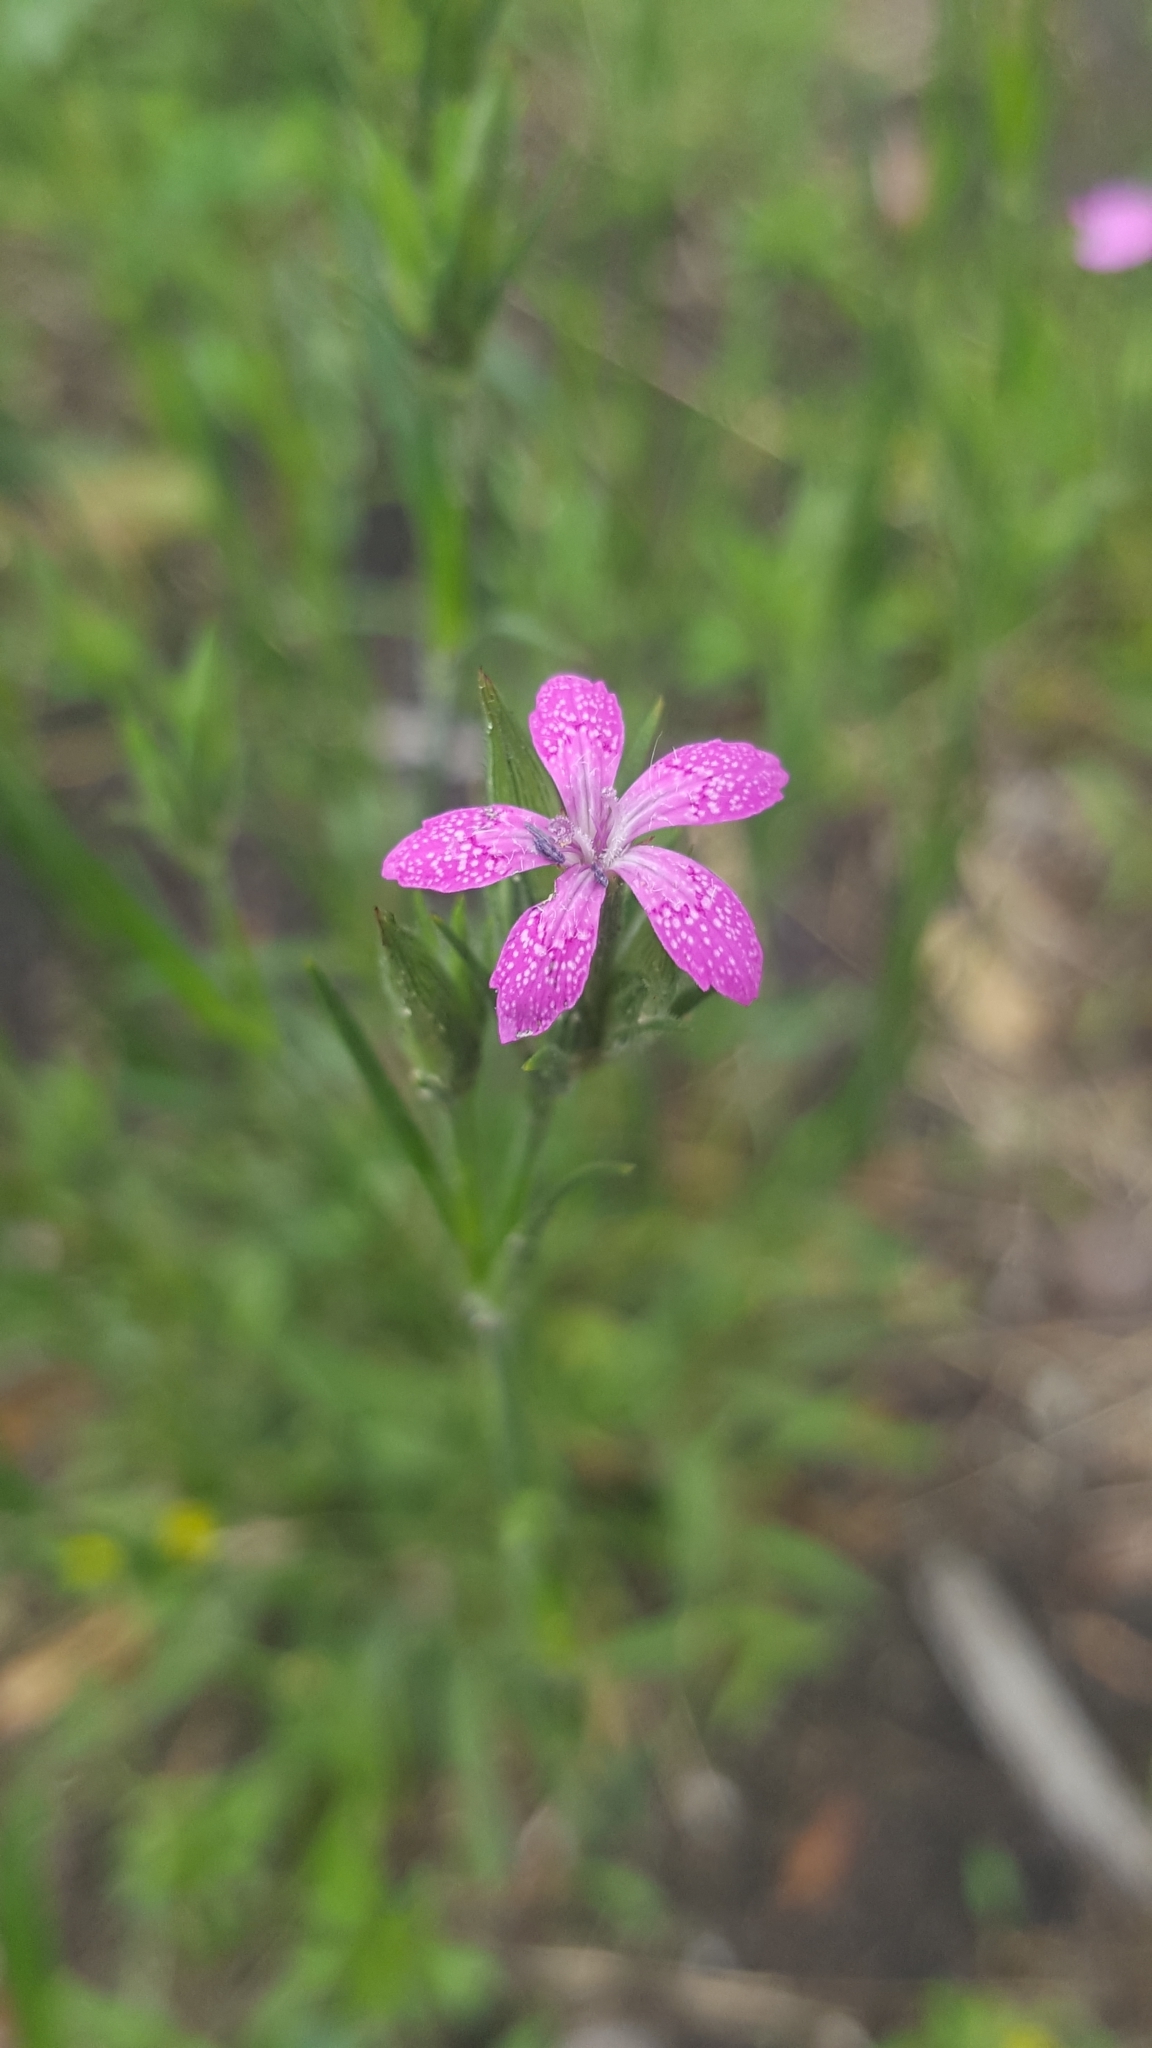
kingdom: Plantae
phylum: Tracheophyta
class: Magnoliopsida
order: Caryophyllales
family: Caryophyllaceae
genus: Dianthus
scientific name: Dianthus armeria
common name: Deptford pink
